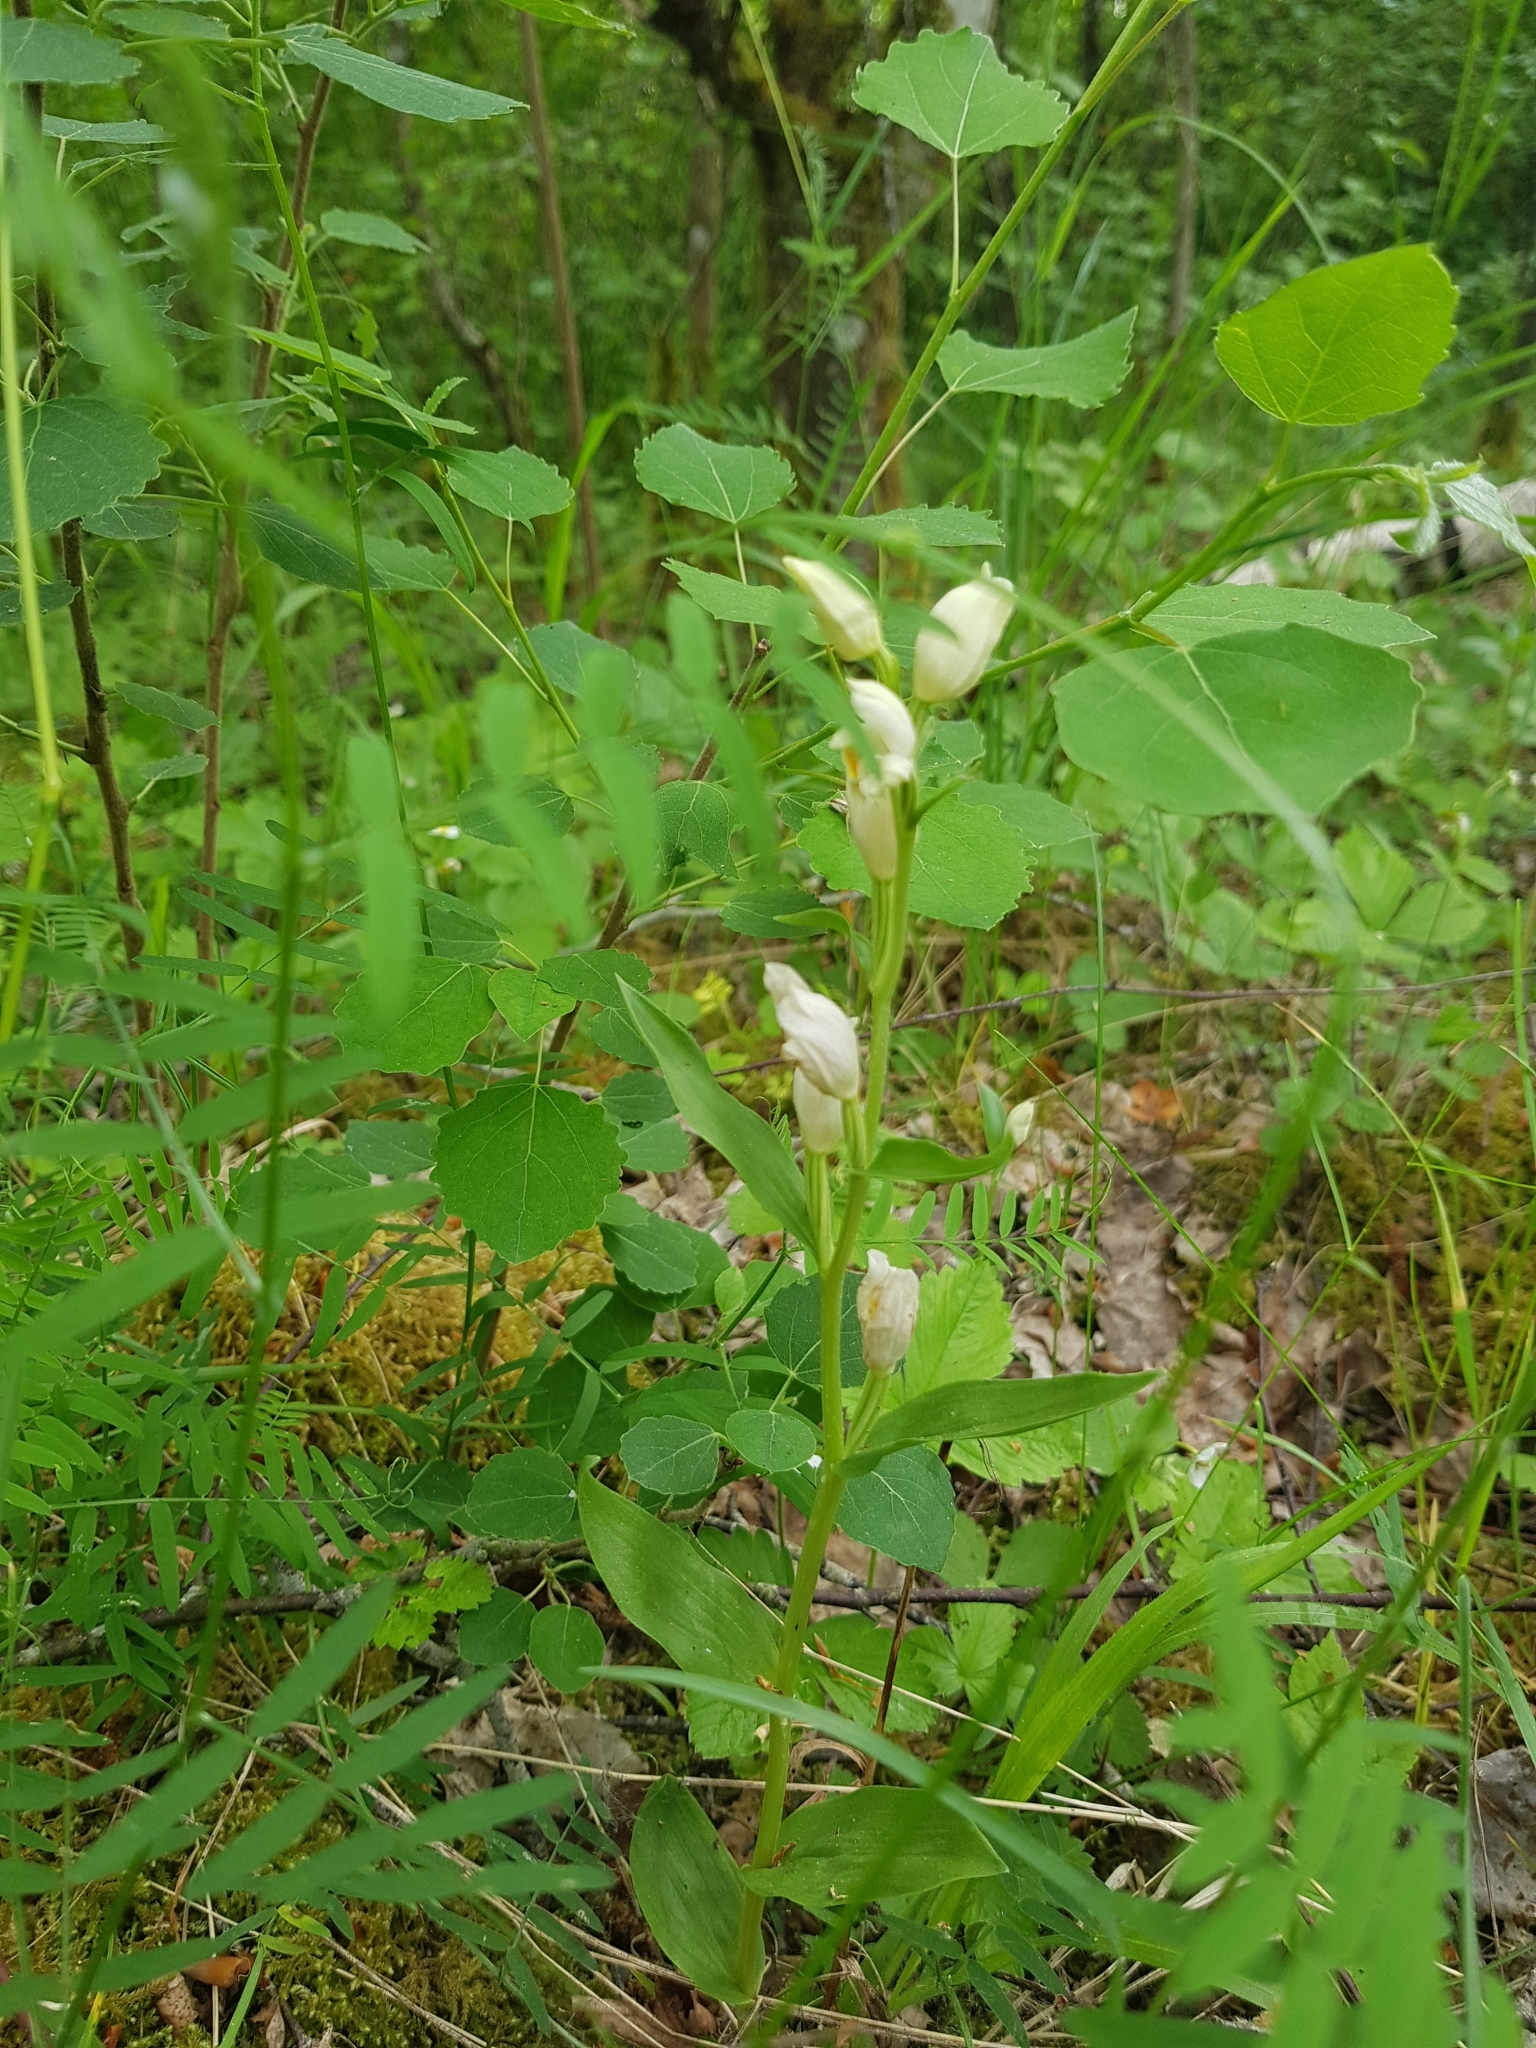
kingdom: Plantae
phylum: Tracheophyta
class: Liliopsida
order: Asparagales
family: Orchidaceae
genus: Cephalanthera
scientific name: Cephalanthera damasonium
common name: White helleborine
